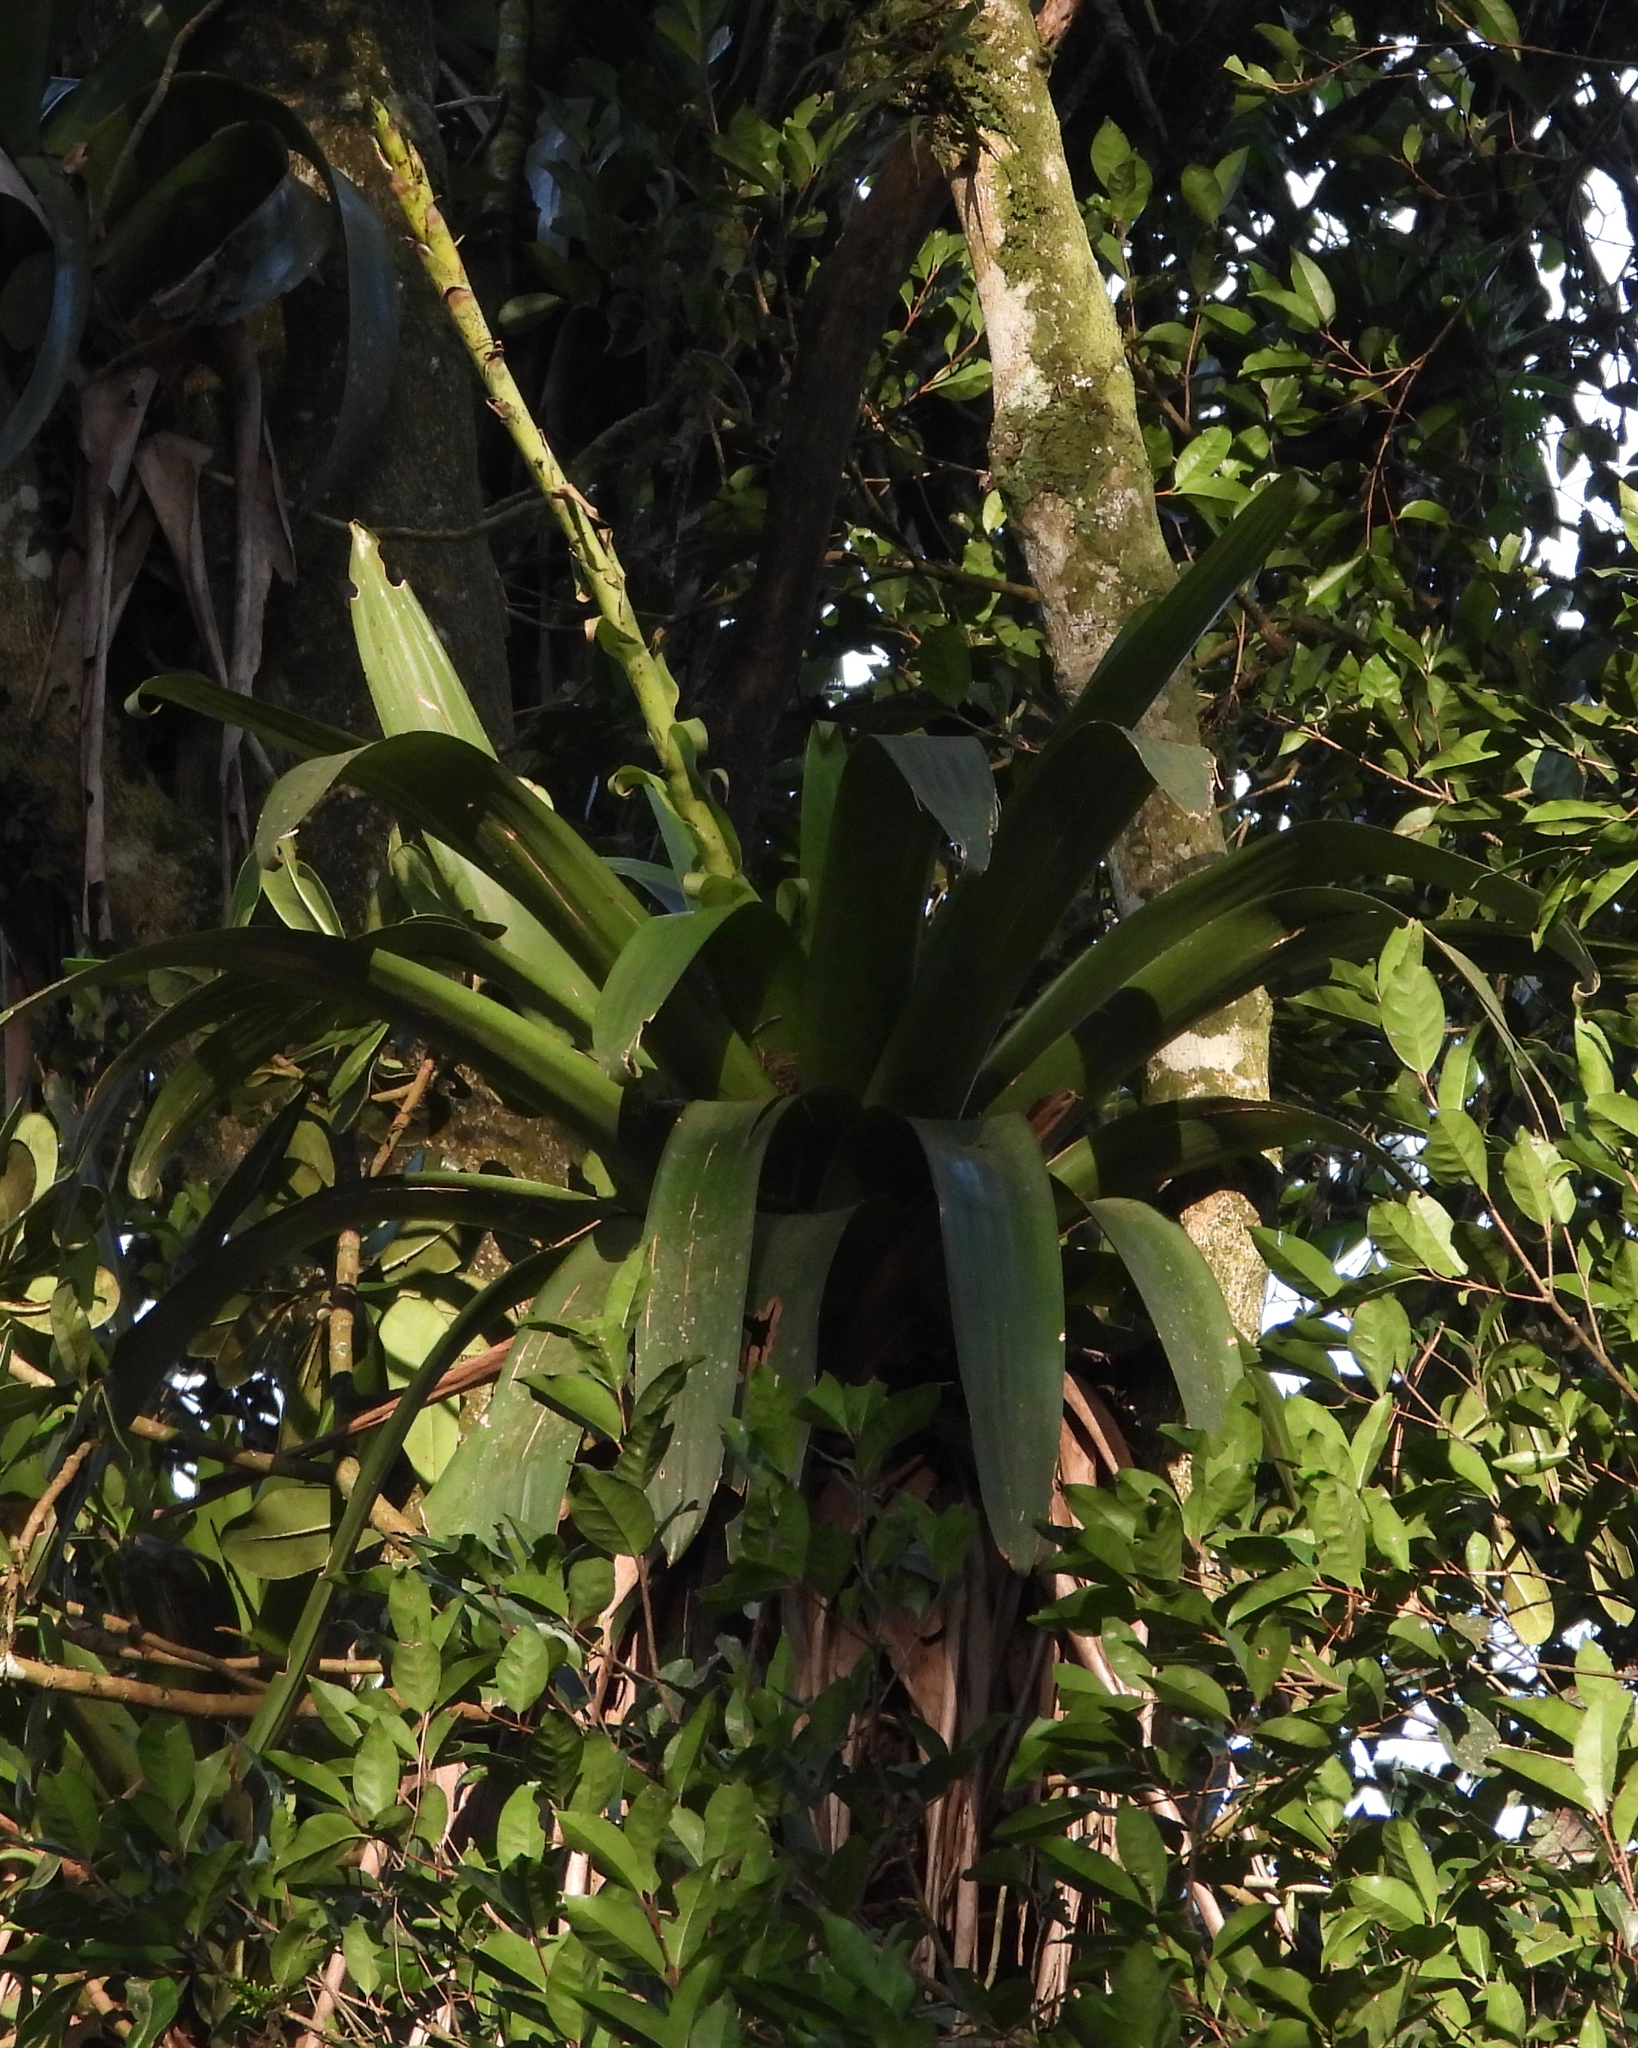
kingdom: Plantae
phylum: Tracheophyta
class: Liliopsida
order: Poales
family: Bromeliaceae
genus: Werauhia
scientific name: Werauhia werckleana
